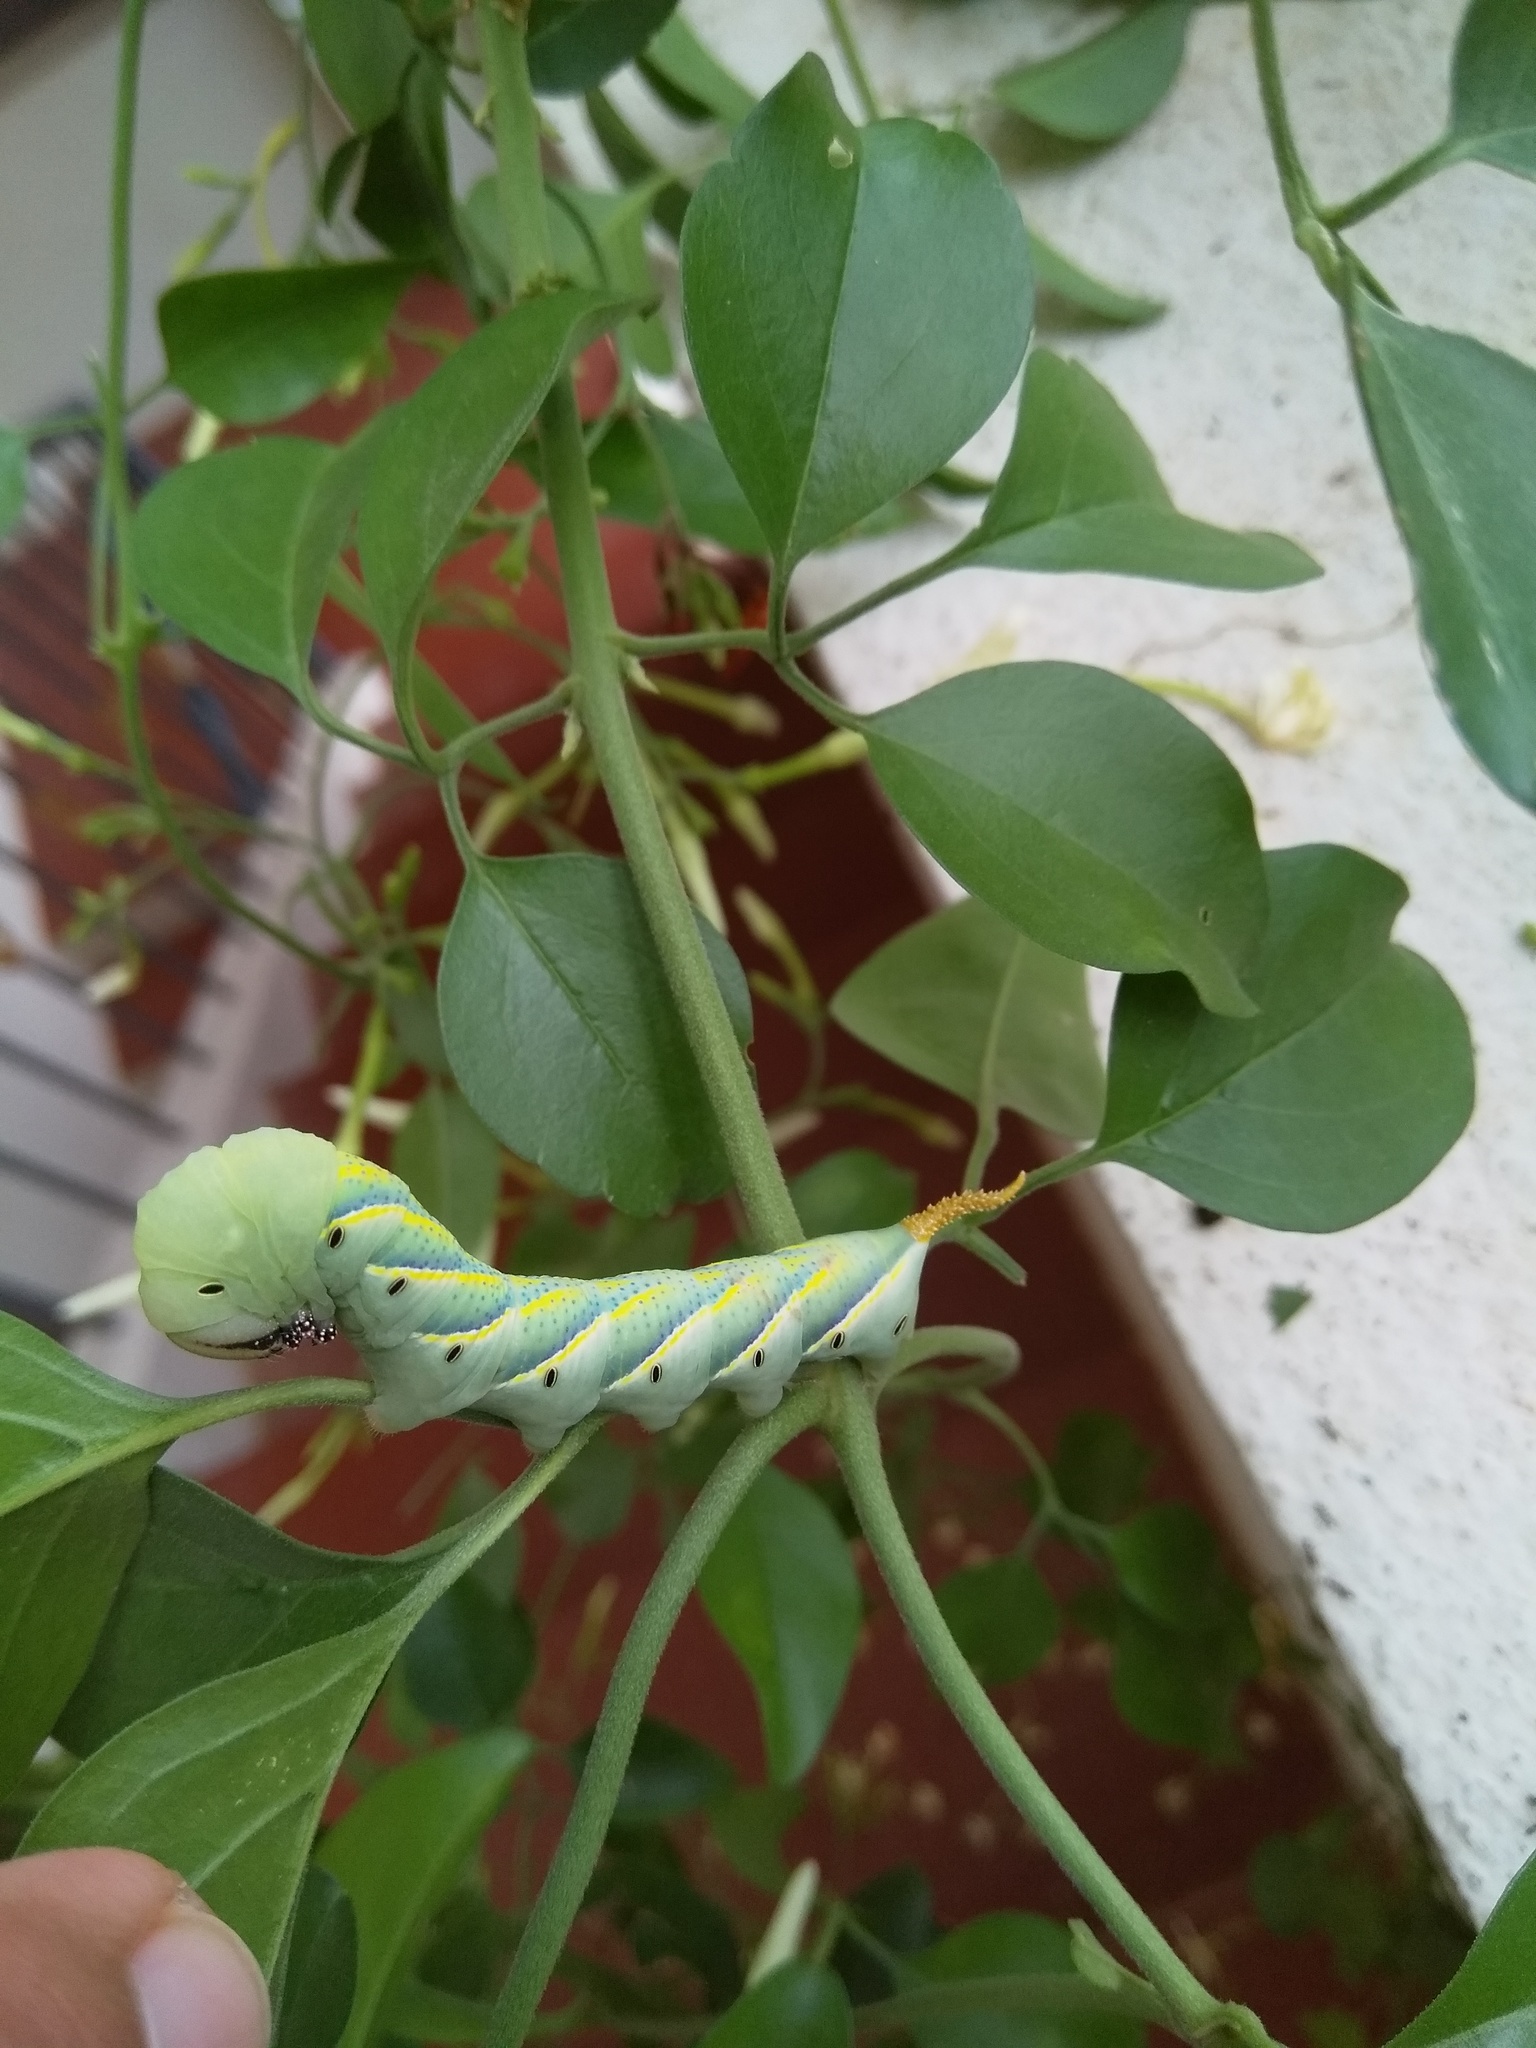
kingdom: Animalia
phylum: Arthropoda
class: Insecta
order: Lepidoptera
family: Sphingidae
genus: Acherontia
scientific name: Acherontia styx
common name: Death's-head hawk moth
